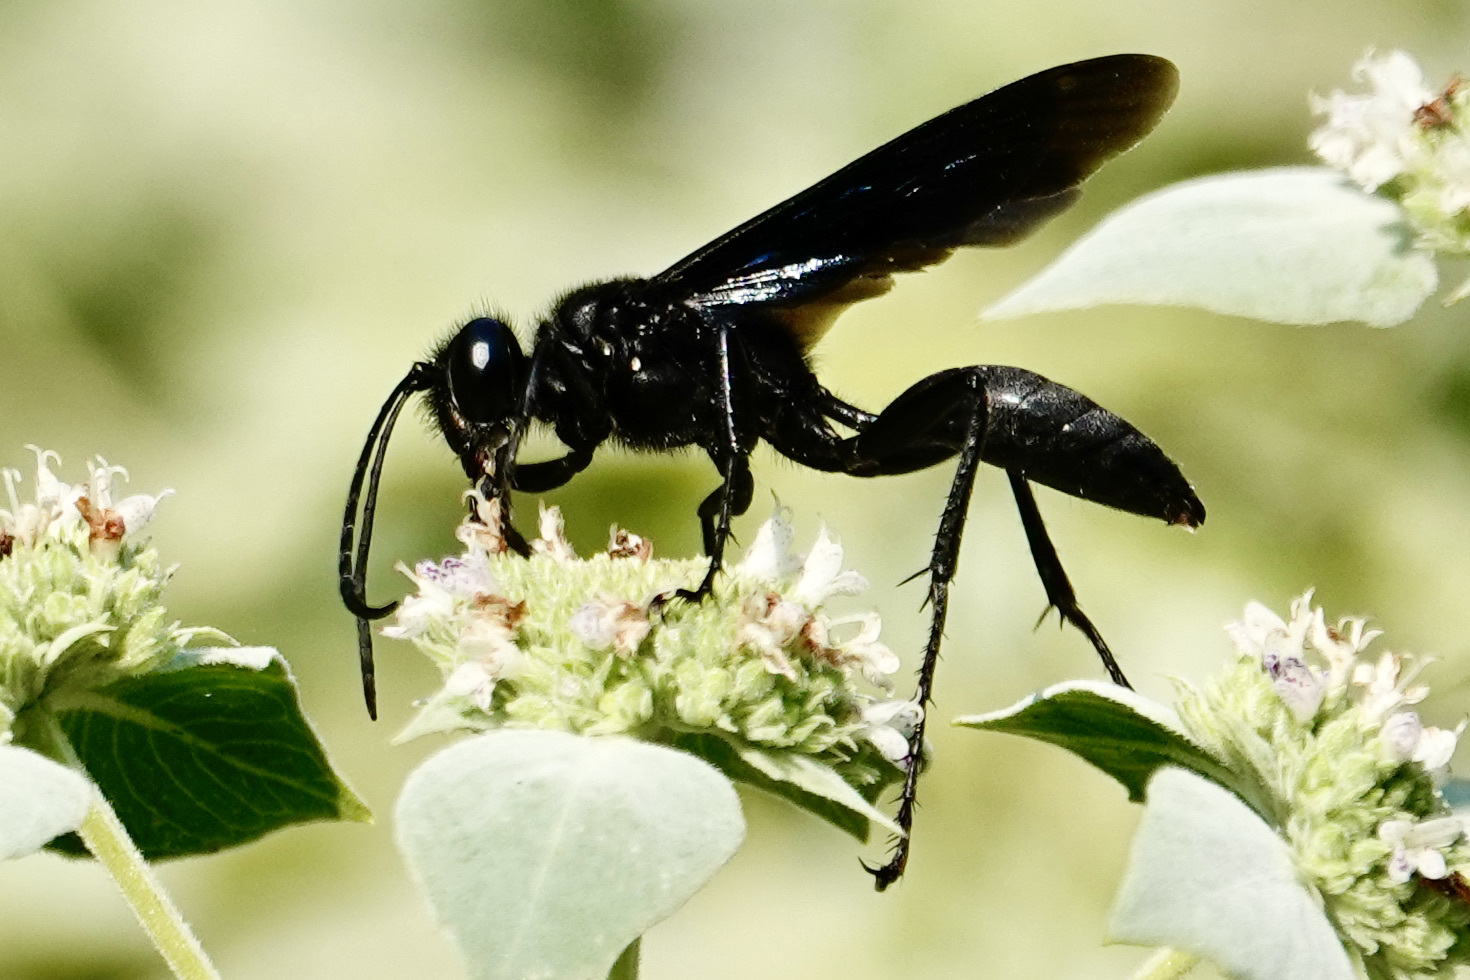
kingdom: Animalia
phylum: Arthropoda
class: Insecta
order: Hymenoptera
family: Sphecidae
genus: Sphex
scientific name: Sphex pensylvanicus
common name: Great black digger wasp
